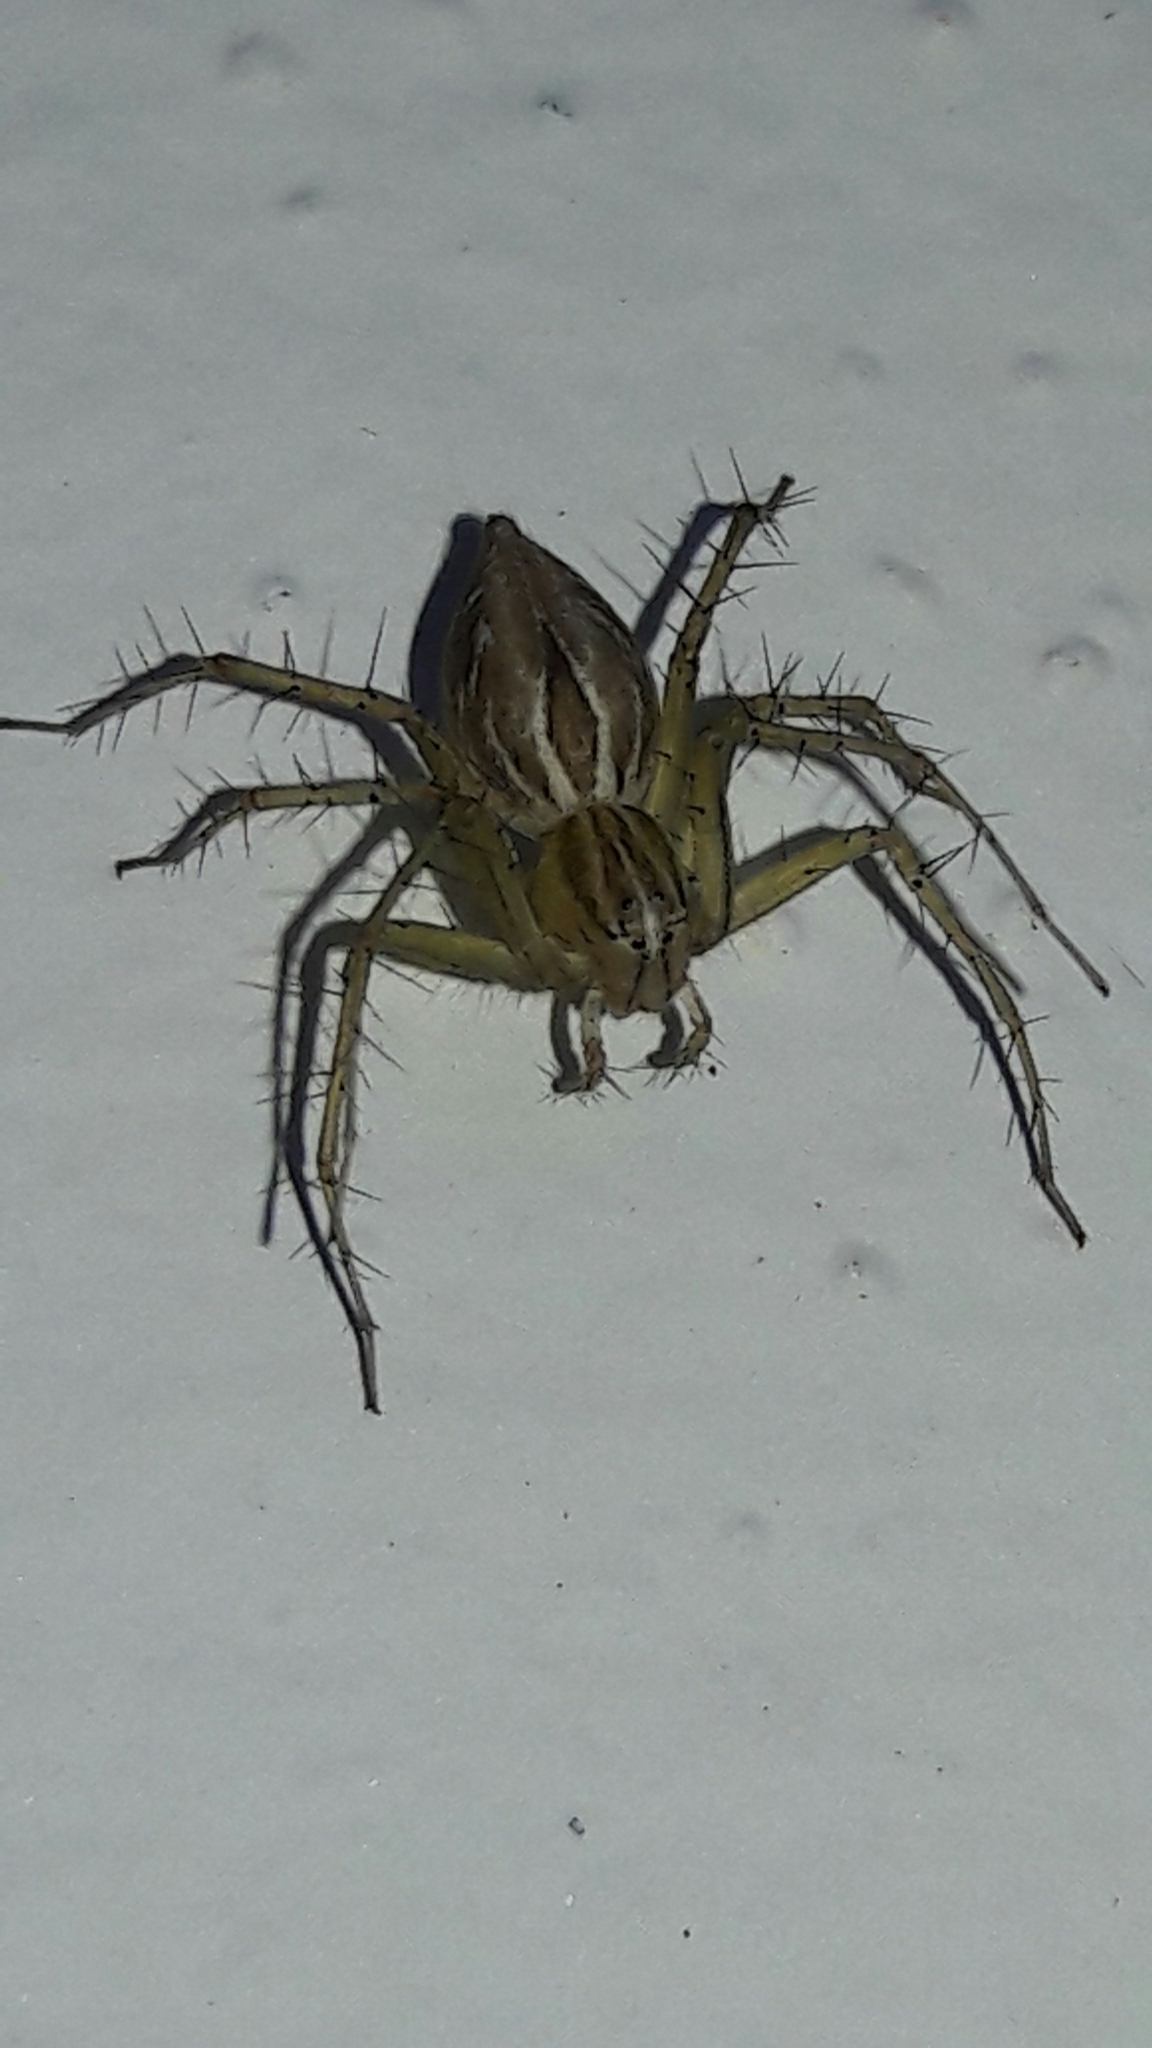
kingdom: Animalia
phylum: Arthropoda
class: Arachnida
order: Araneae
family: Oxyopidae
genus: Oxyopes
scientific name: Oxyopes salticus
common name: Lynx spiders
